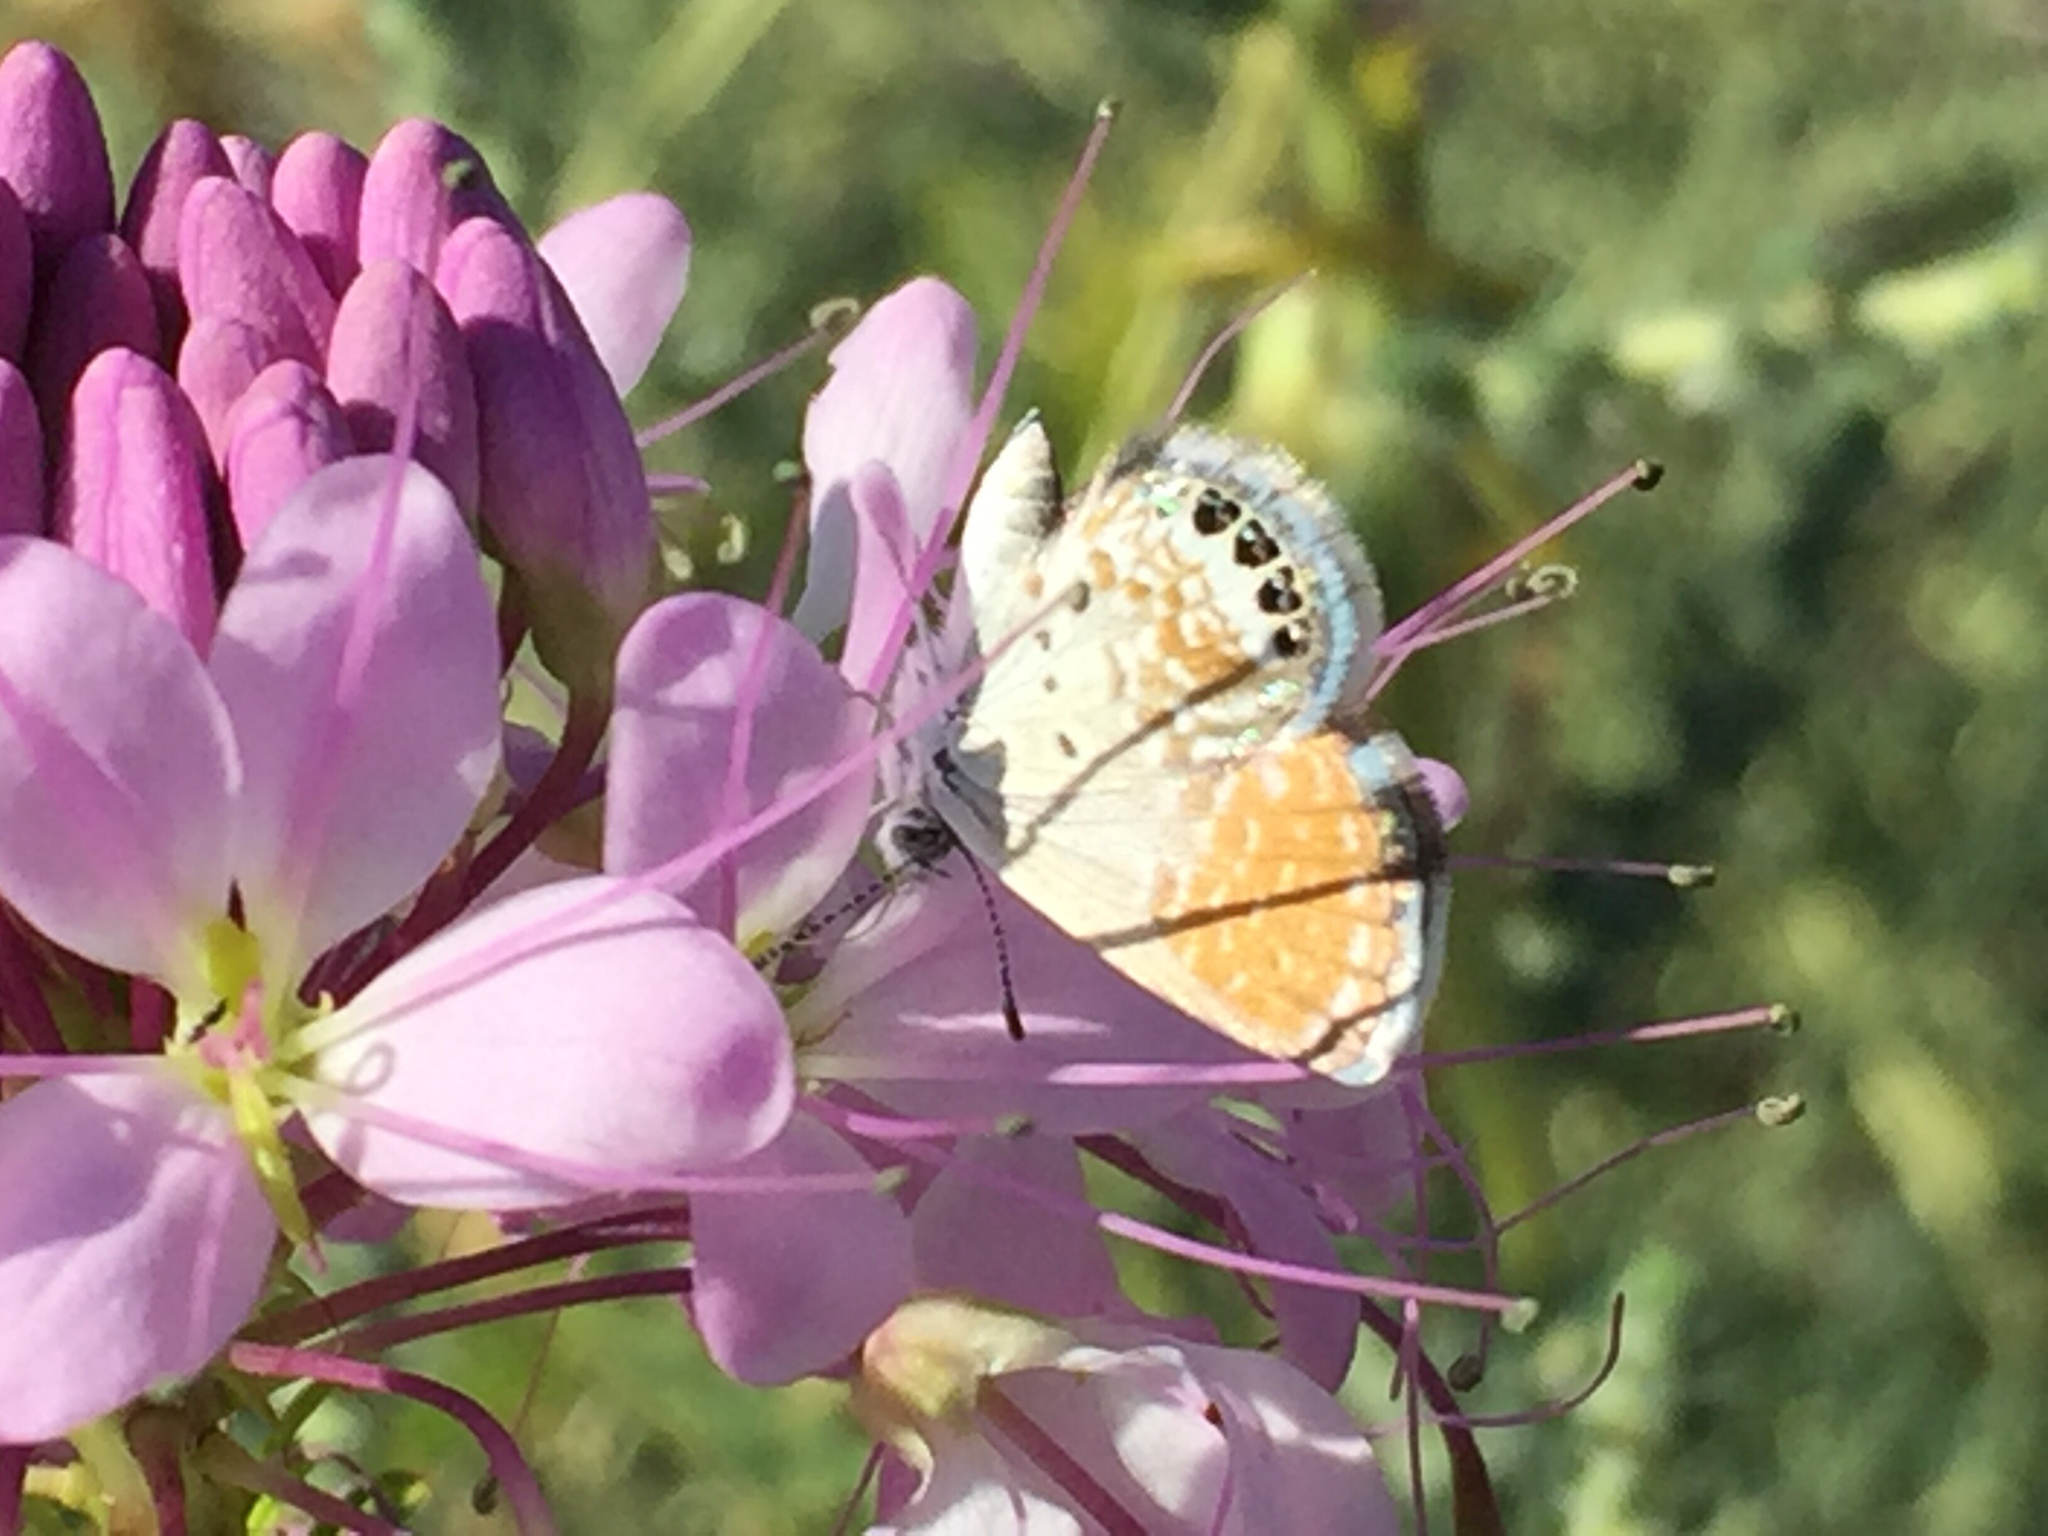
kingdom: Animalia
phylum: Arthropoda
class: Insecta
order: Lepidoptera
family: Lycaenidae
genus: Brephidium
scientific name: Brephidium exilis
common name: Pygmy blue
